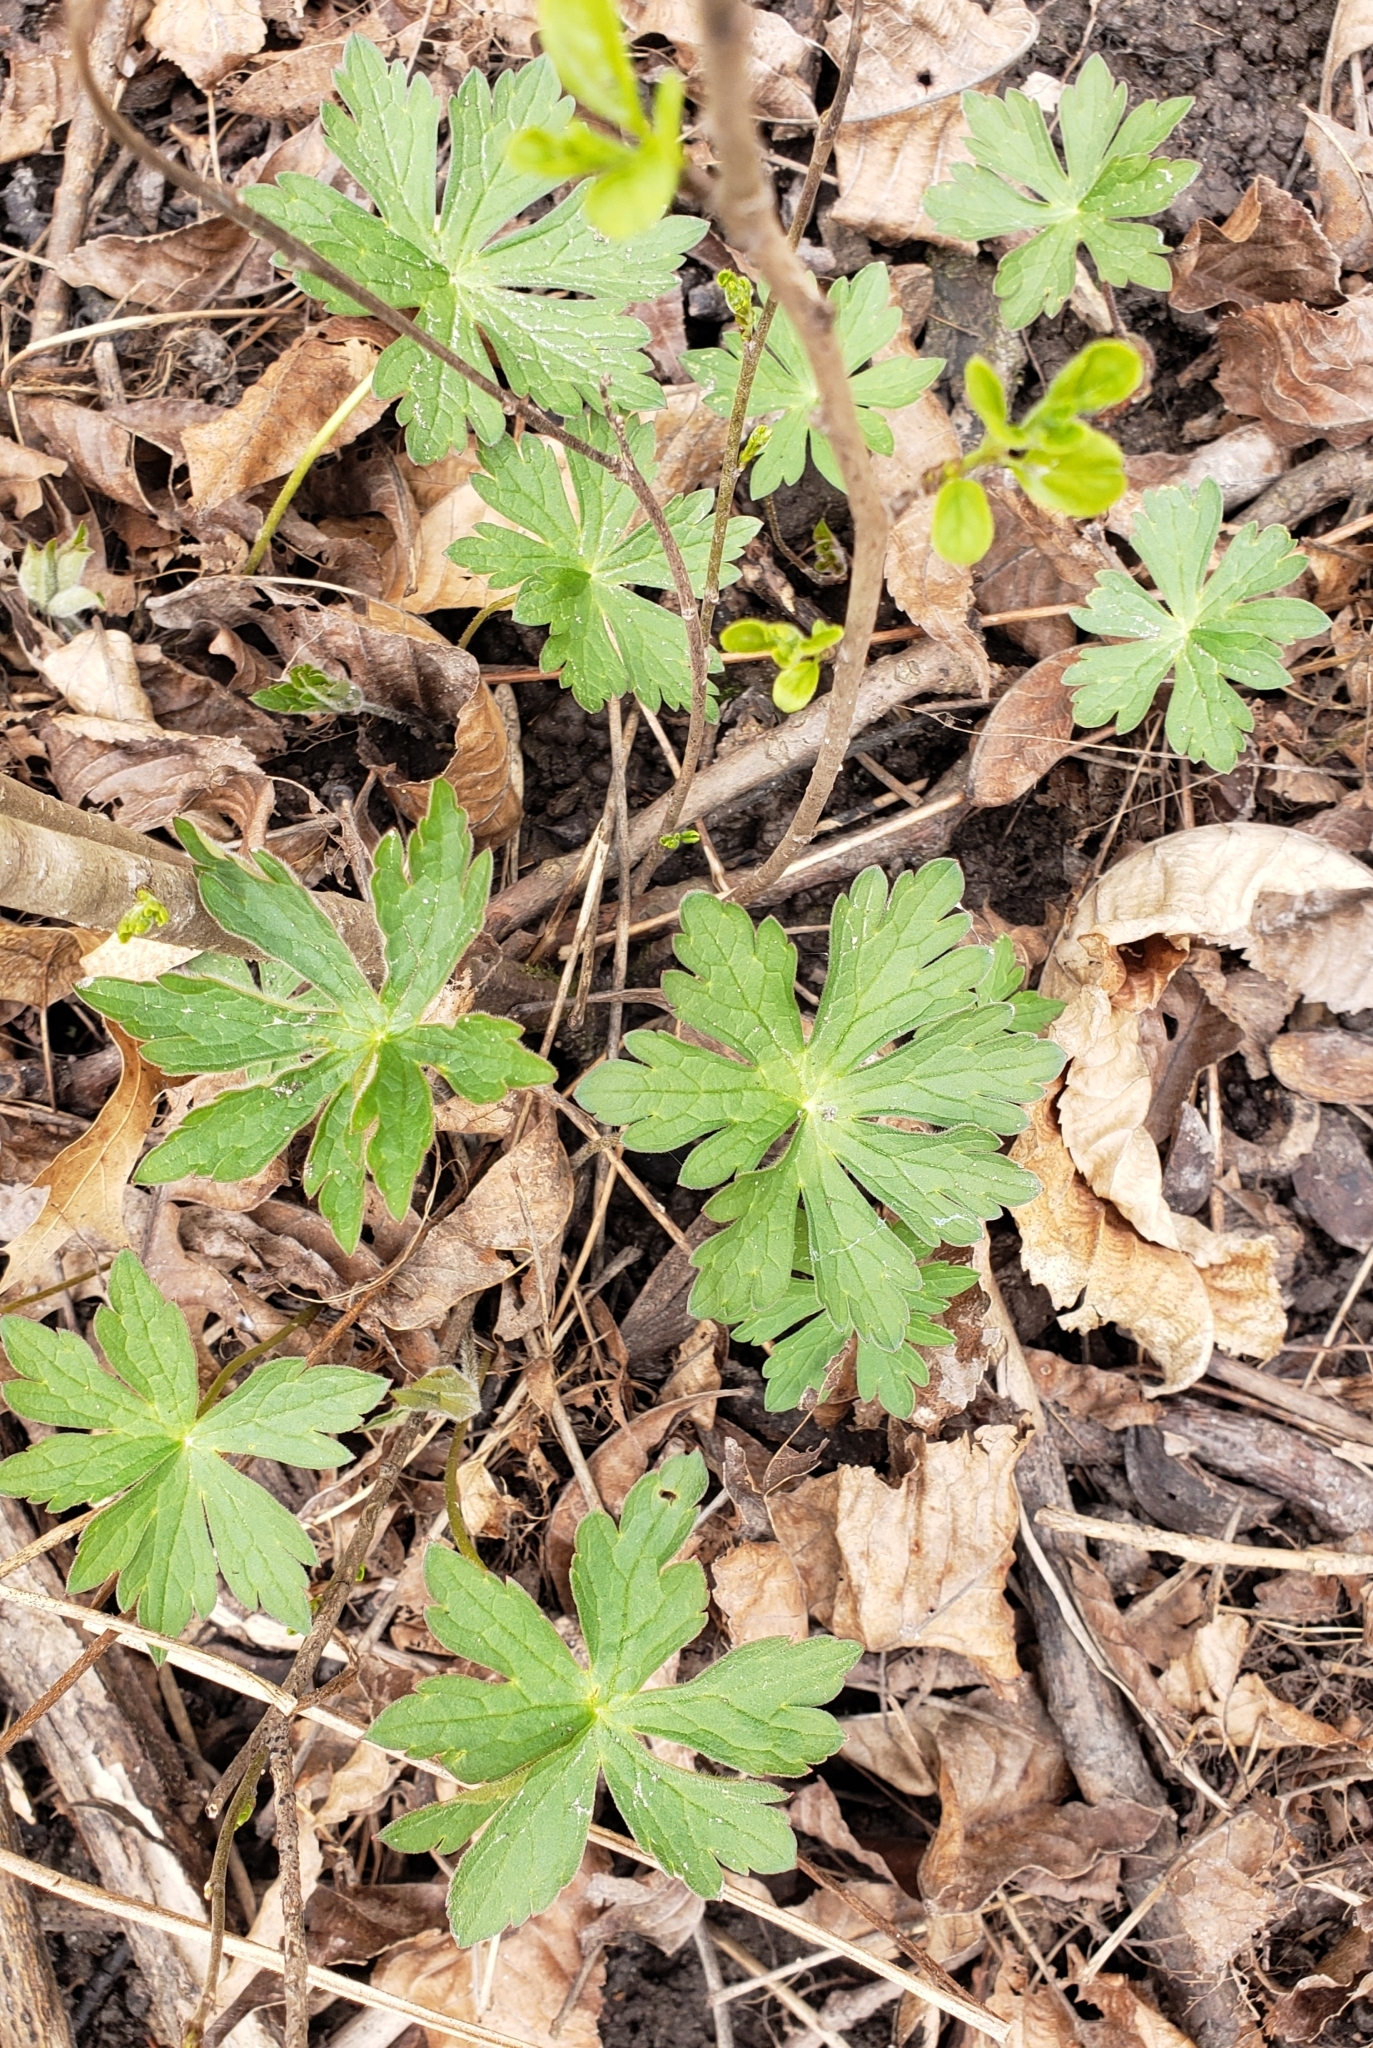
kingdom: Plantae
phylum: Tracheophyta
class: Magnoliopsida
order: Geraniales
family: Geraniaceae
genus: Geranium
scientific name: Geranium maculatum
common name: Spotted geranium
